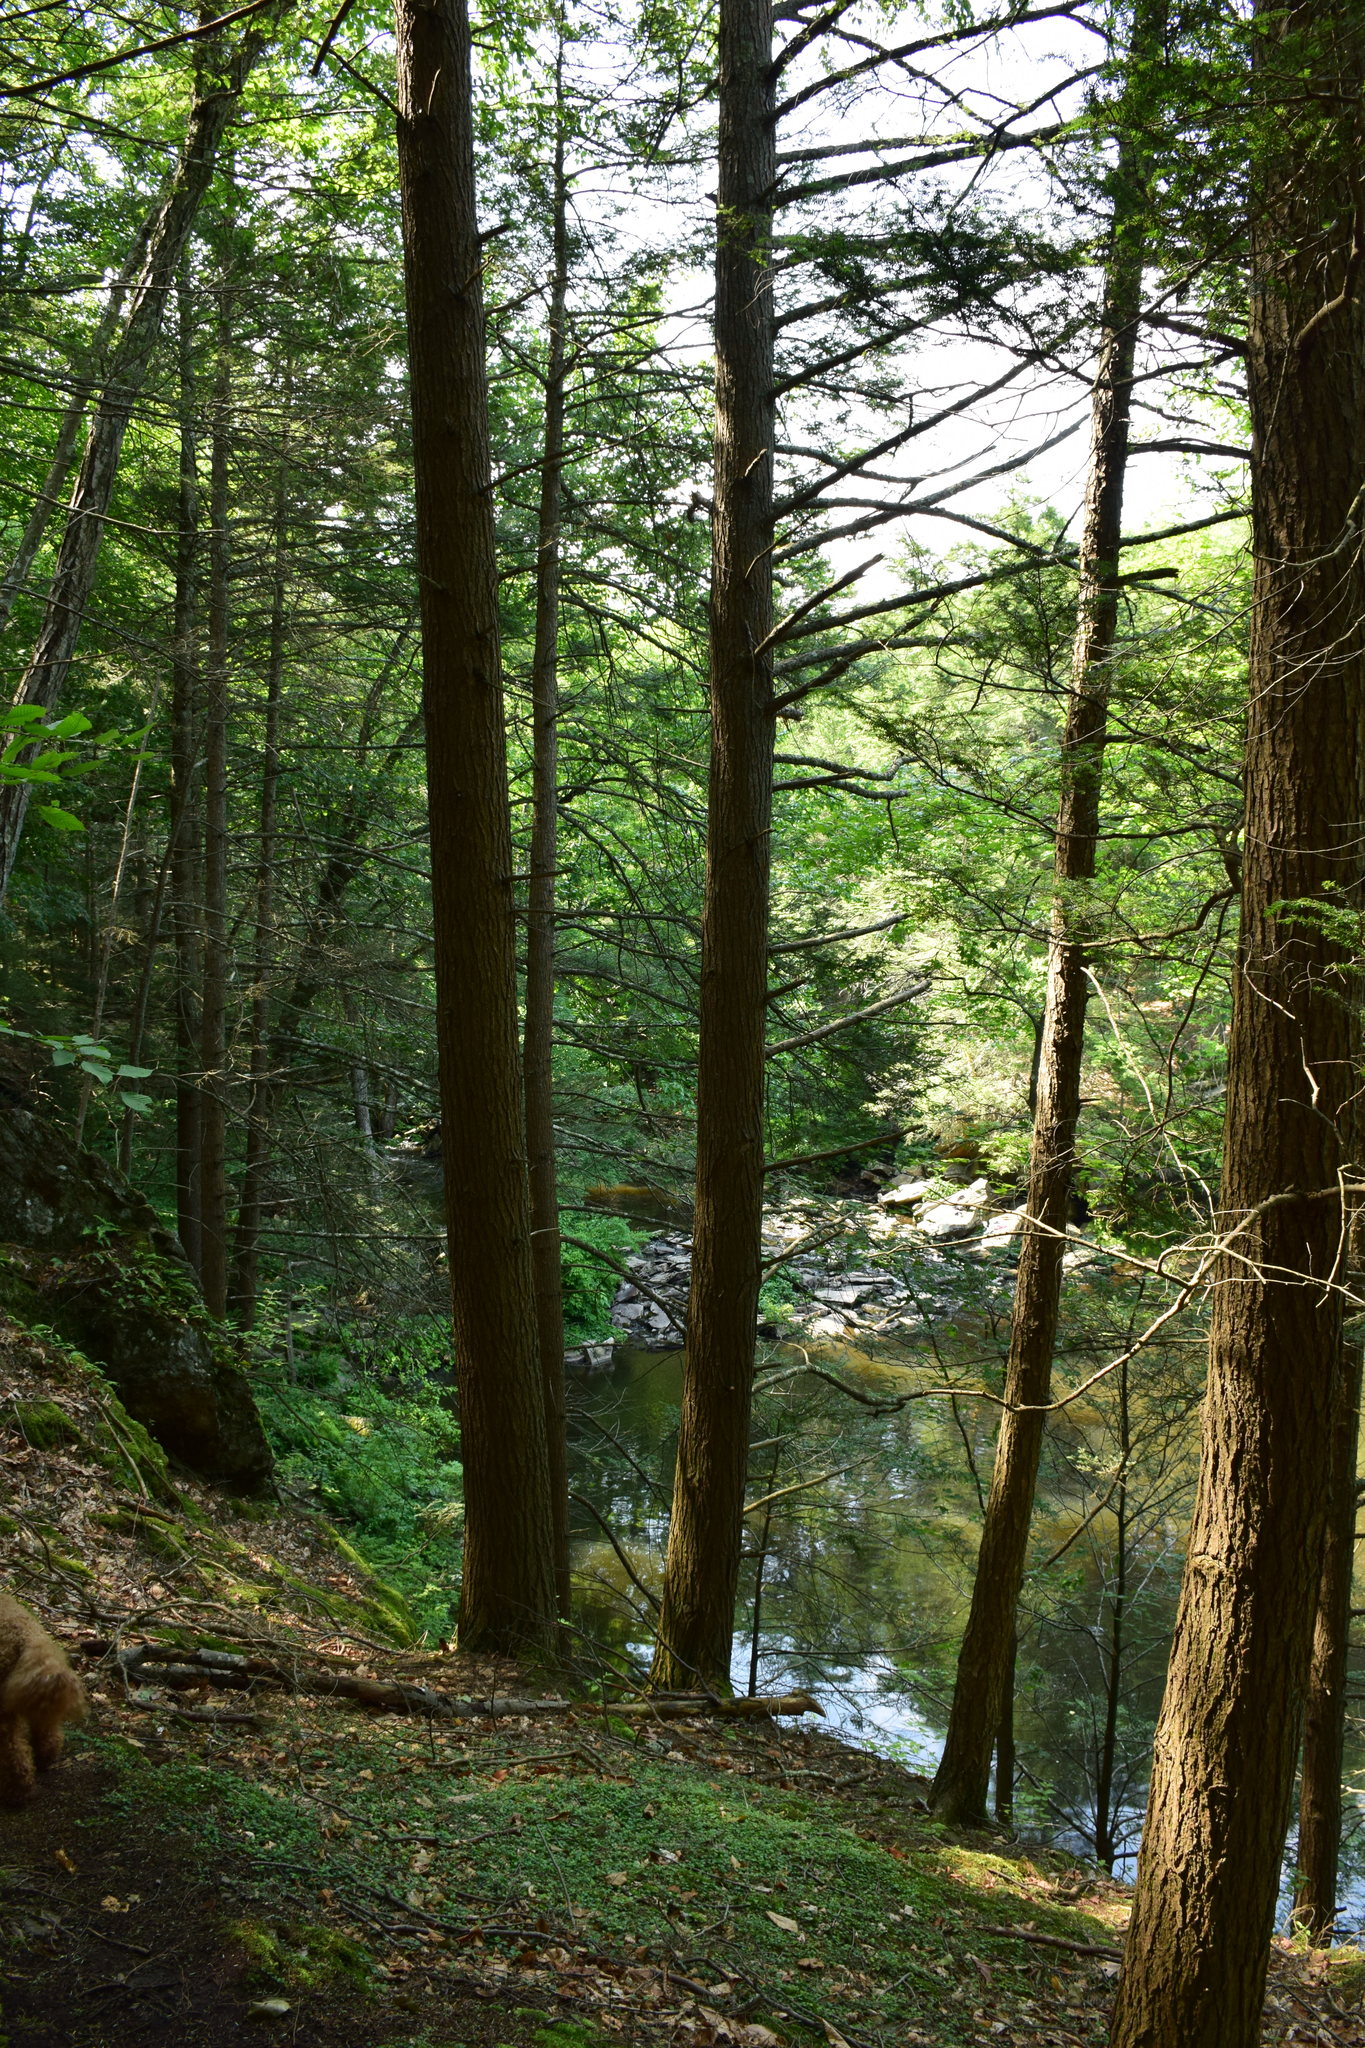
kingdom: Plantae
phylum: Tracheophyta
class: Pinopsida
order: Pinales
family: Pinaceae
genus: Tsuga
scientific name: Tsuga canadensis
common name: Eastern hemlock
